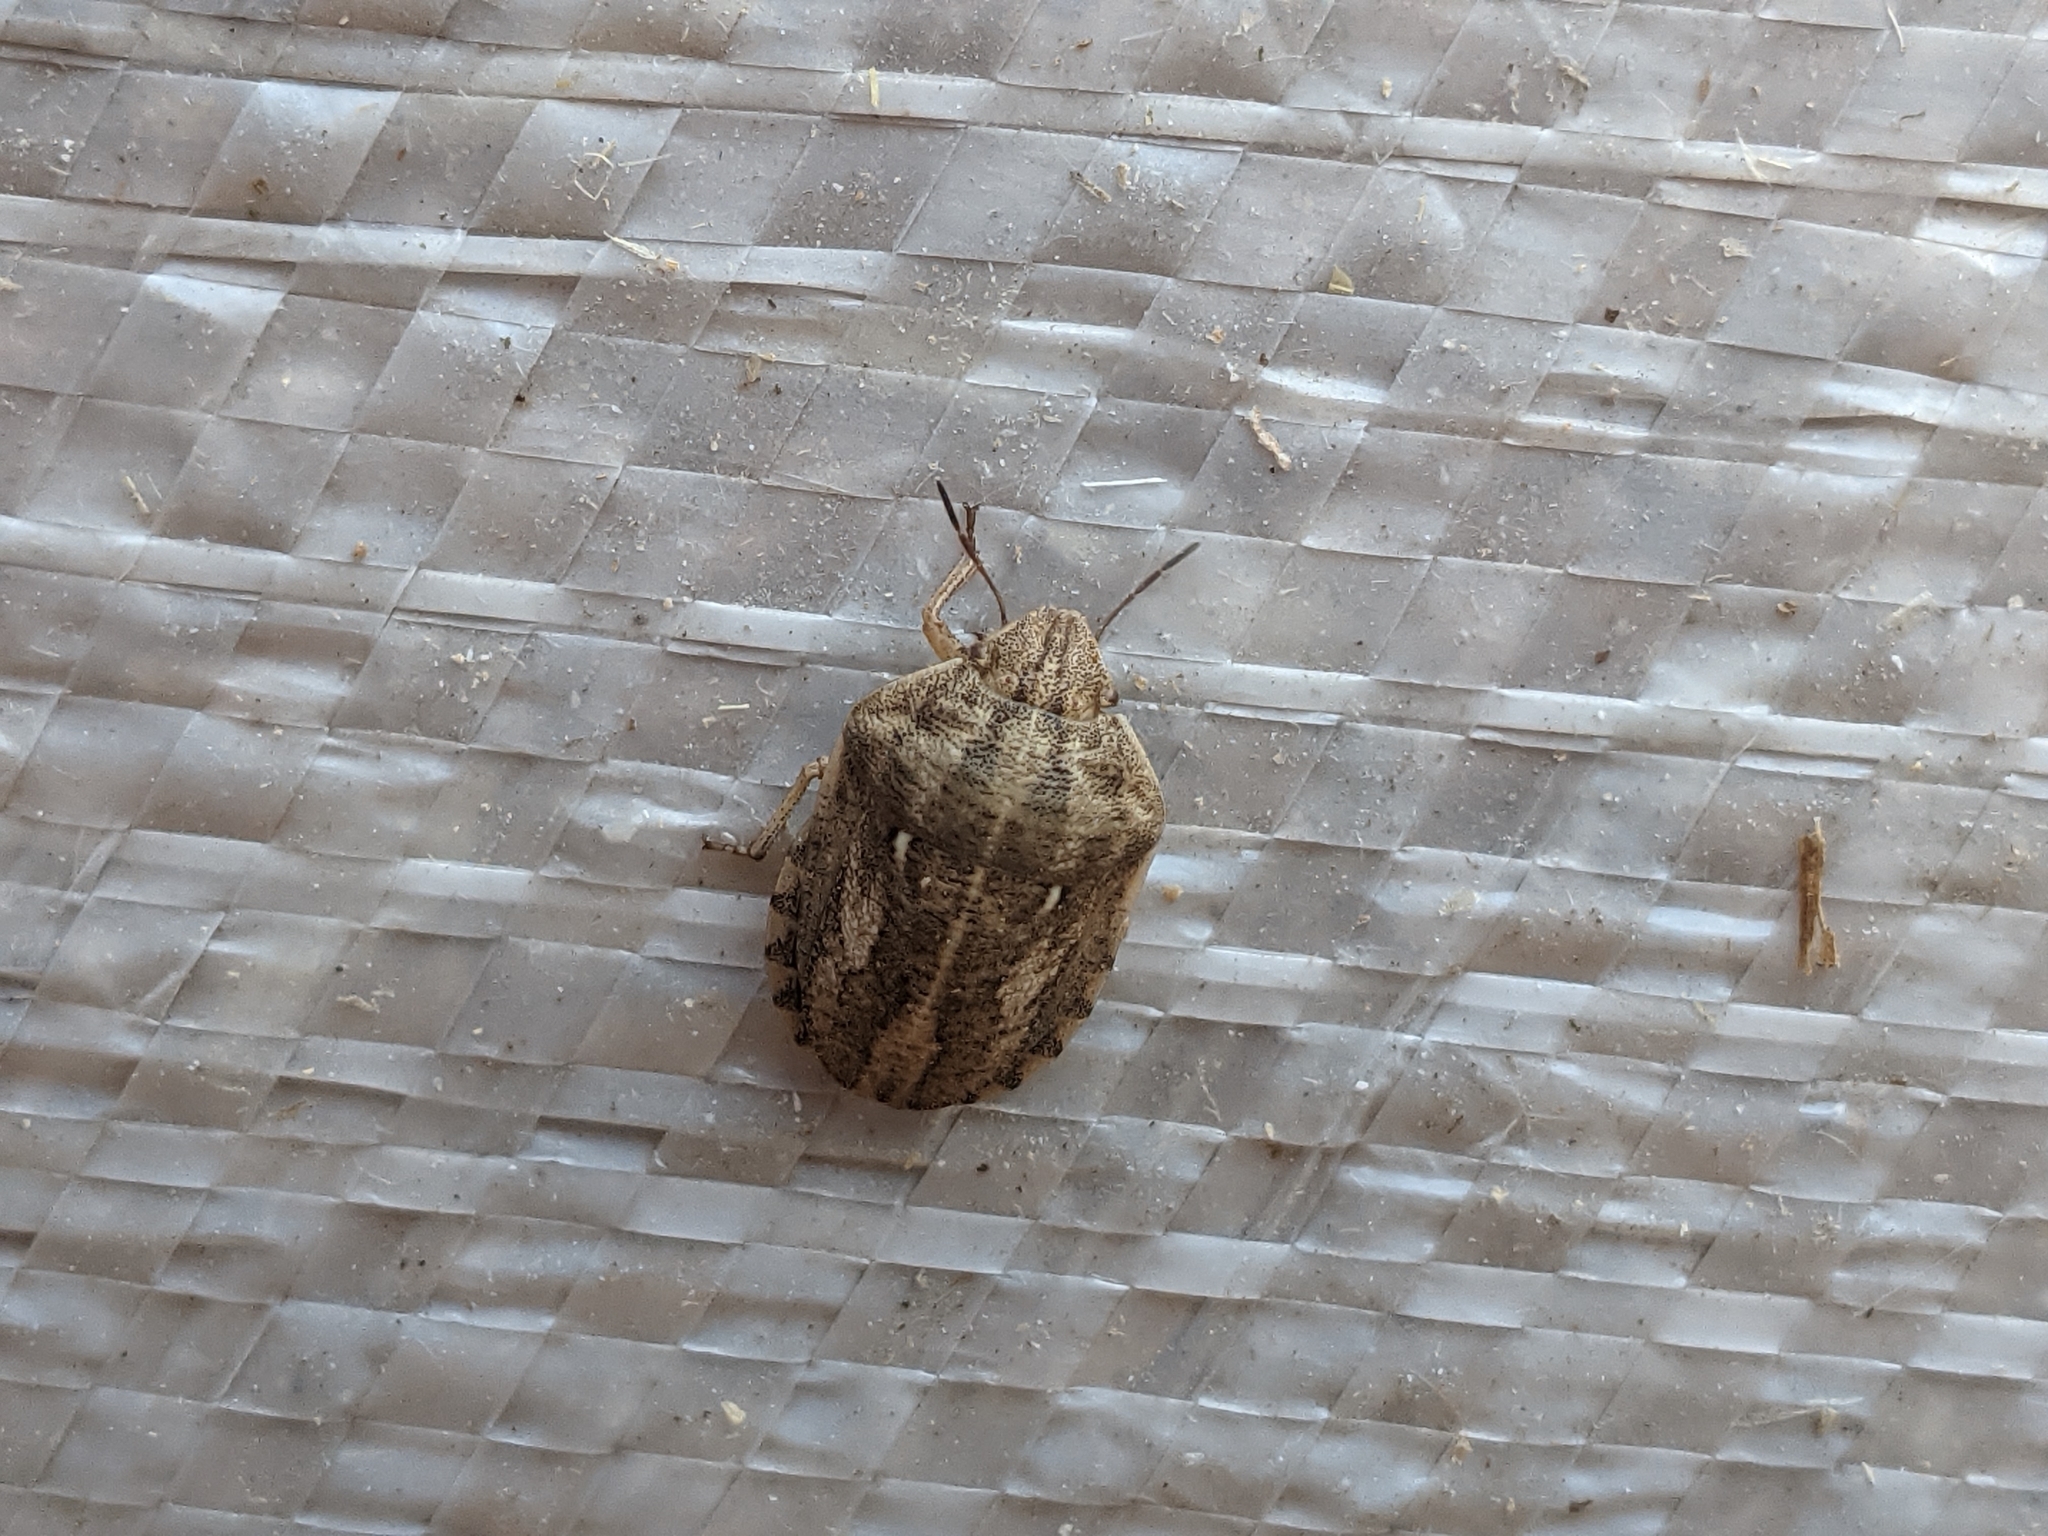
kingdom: Animalia
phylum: Arthropoda
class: Insecta
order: Hemiptera
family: Scutelleridae
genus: Eurygaster
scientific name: Eurygaster maura
